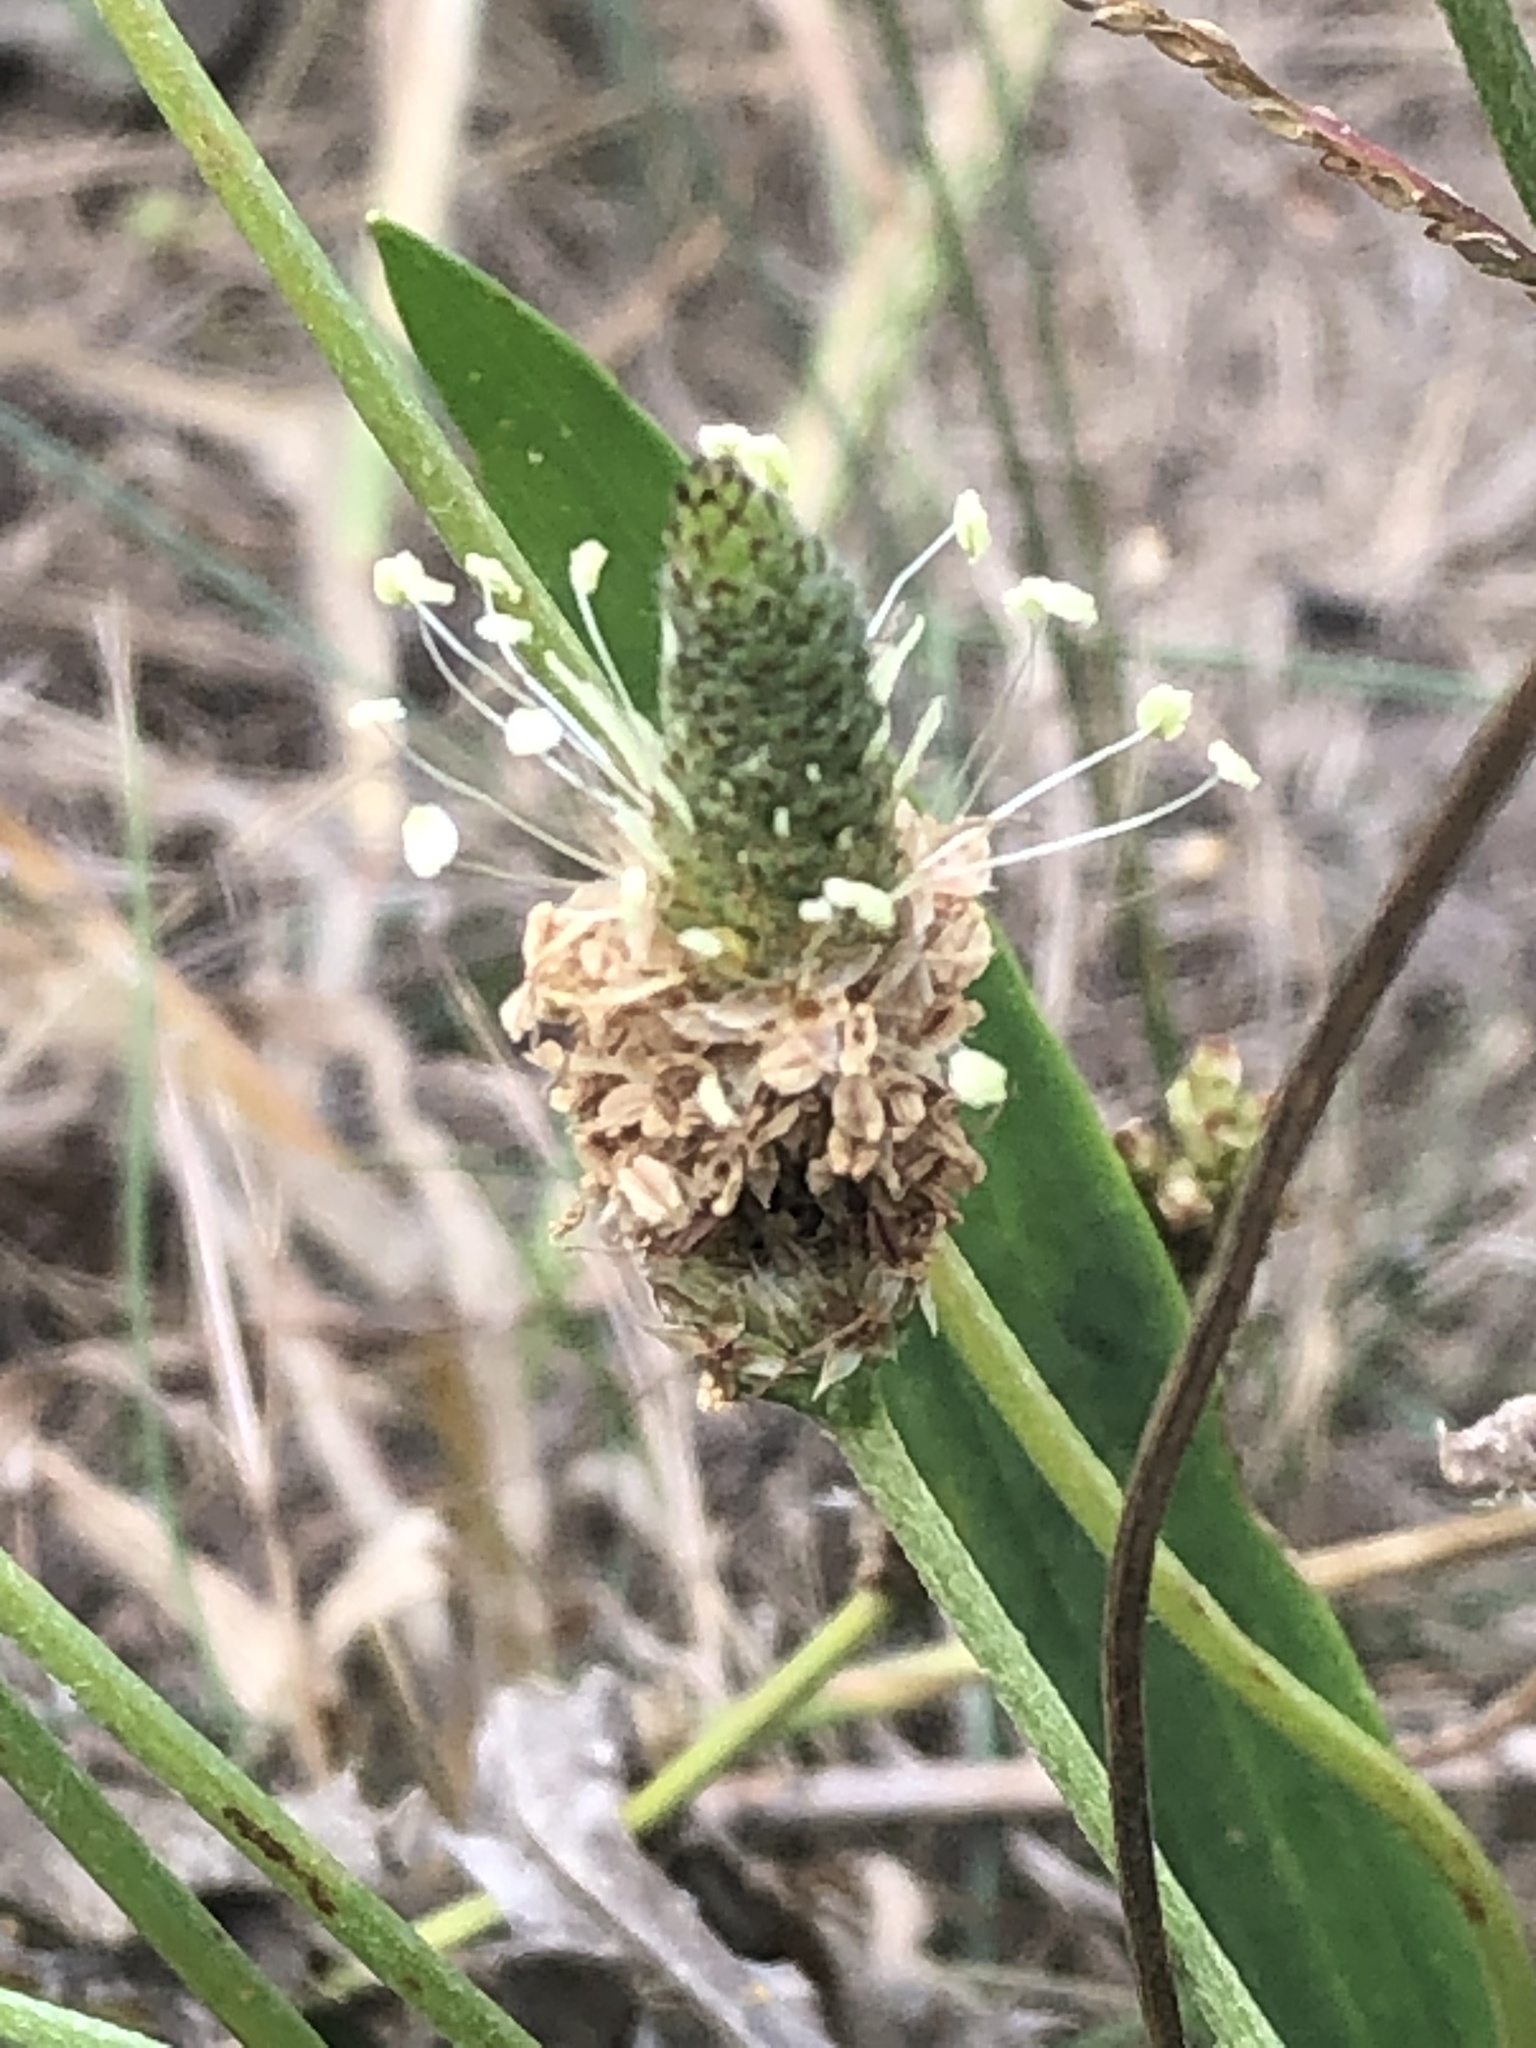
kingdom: Plantae
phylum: Tracheophyta
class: Magnoliopsida
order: Lamiales
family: Plantaginaceae
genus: Plantago
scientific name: Plantago lanceolata
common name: Ribwort plantain
